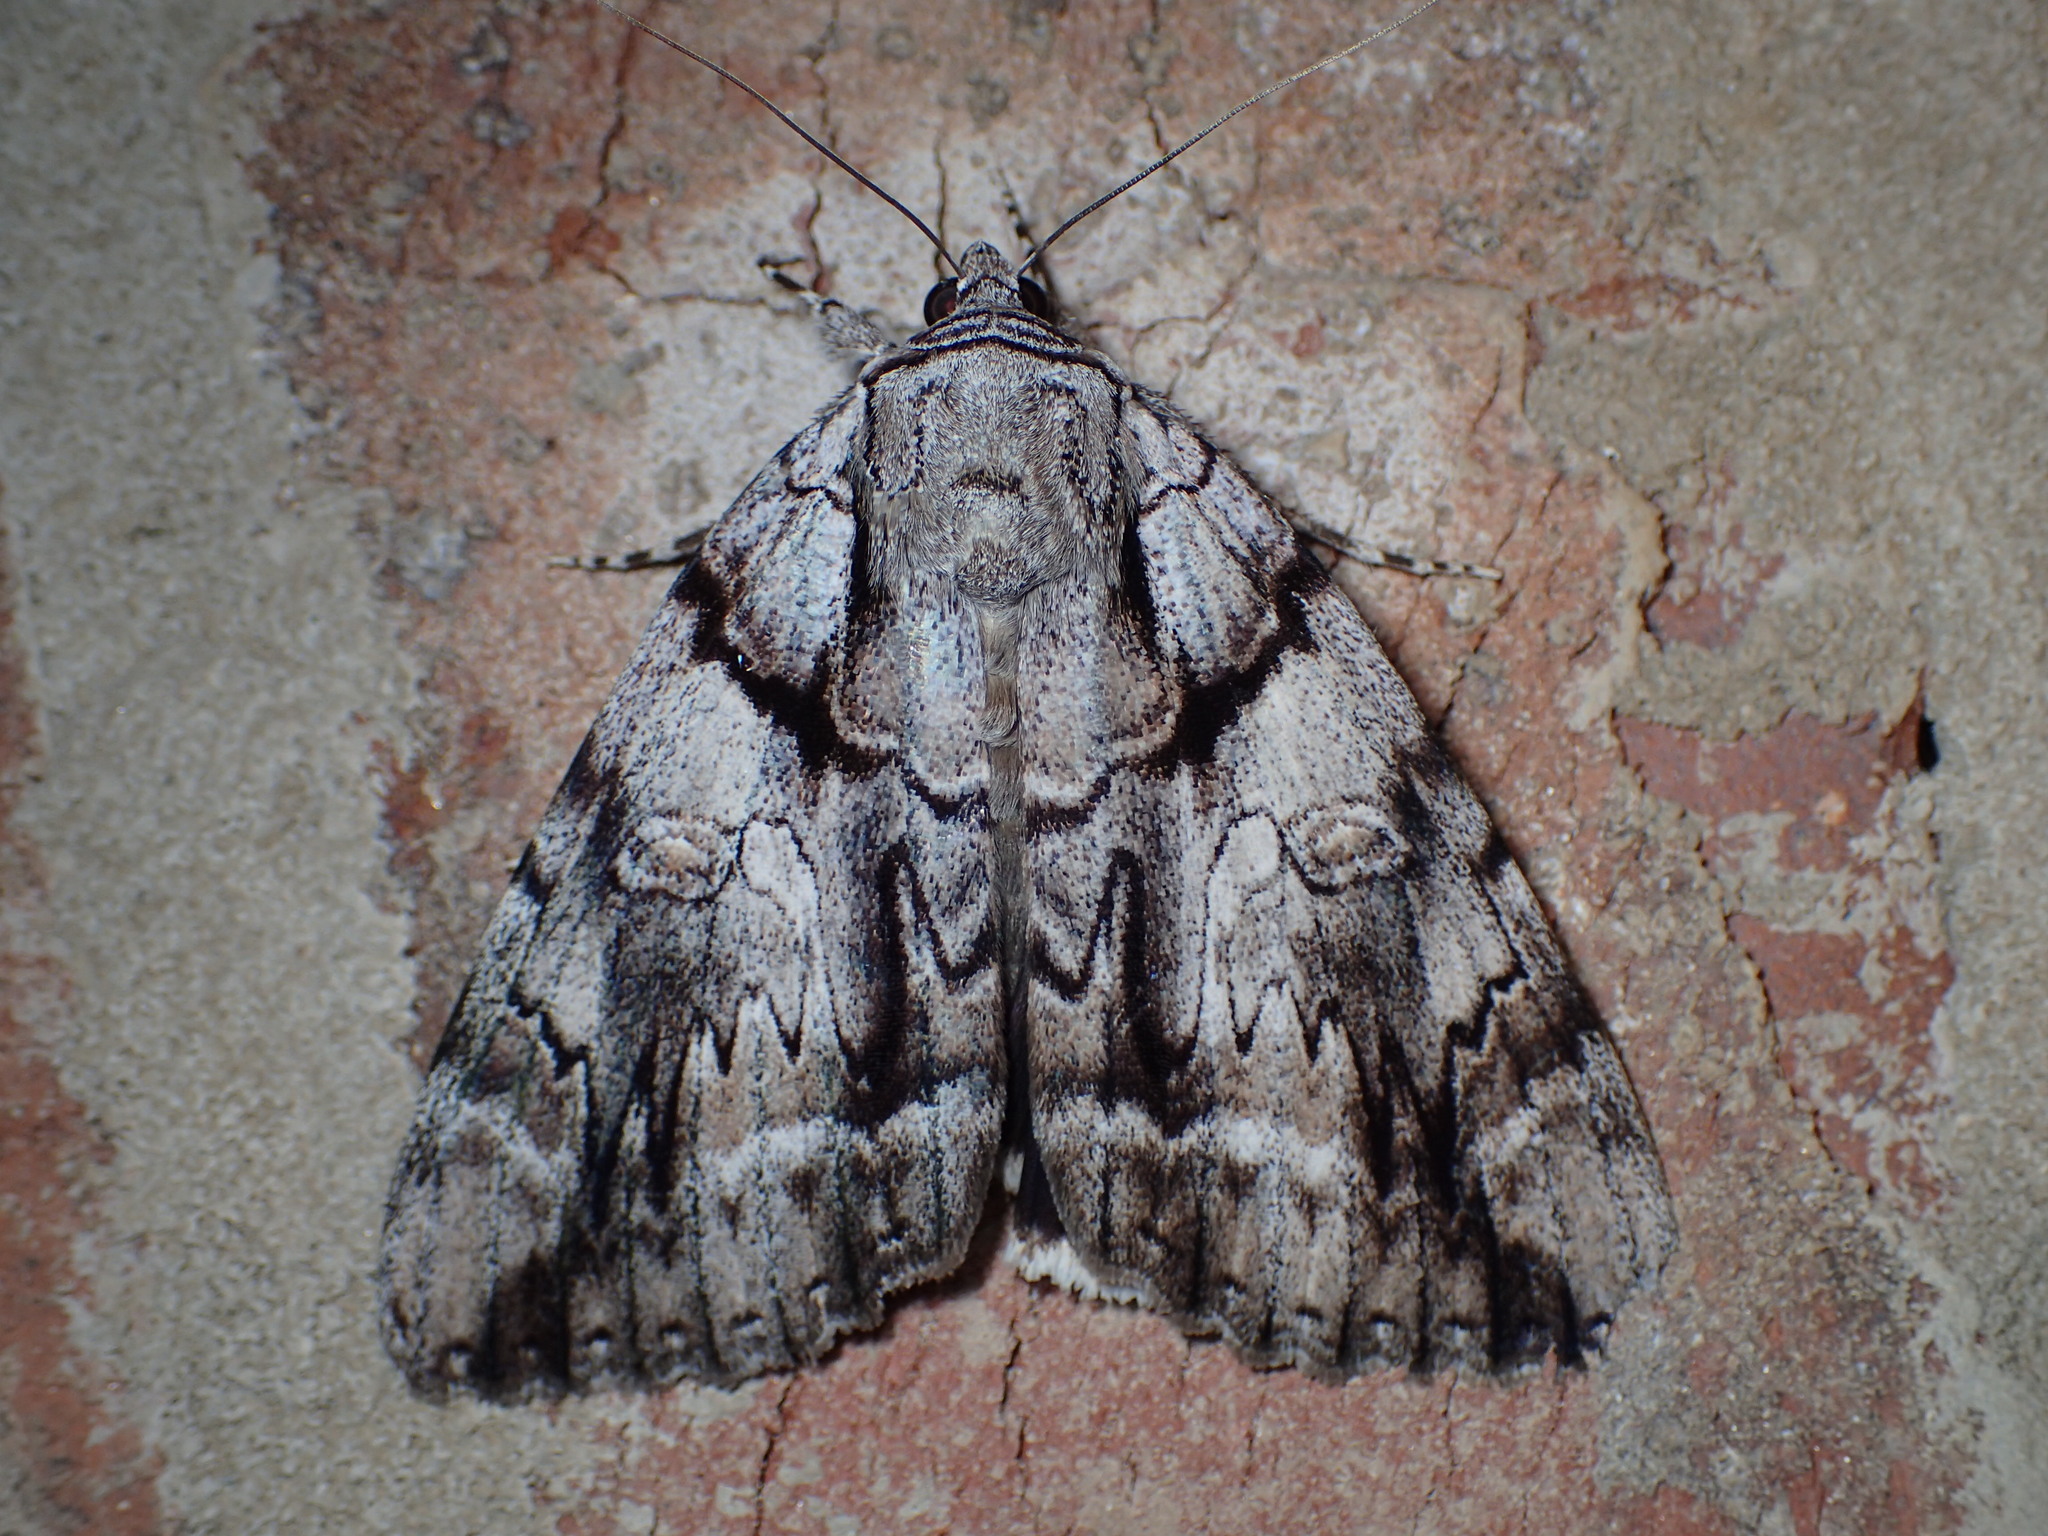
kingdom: Animalia
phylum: Arthropoda
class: Insecta
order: Lepidoptera
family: Erebidae
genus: Catocala
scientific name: Catocala vidua
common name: The widow
